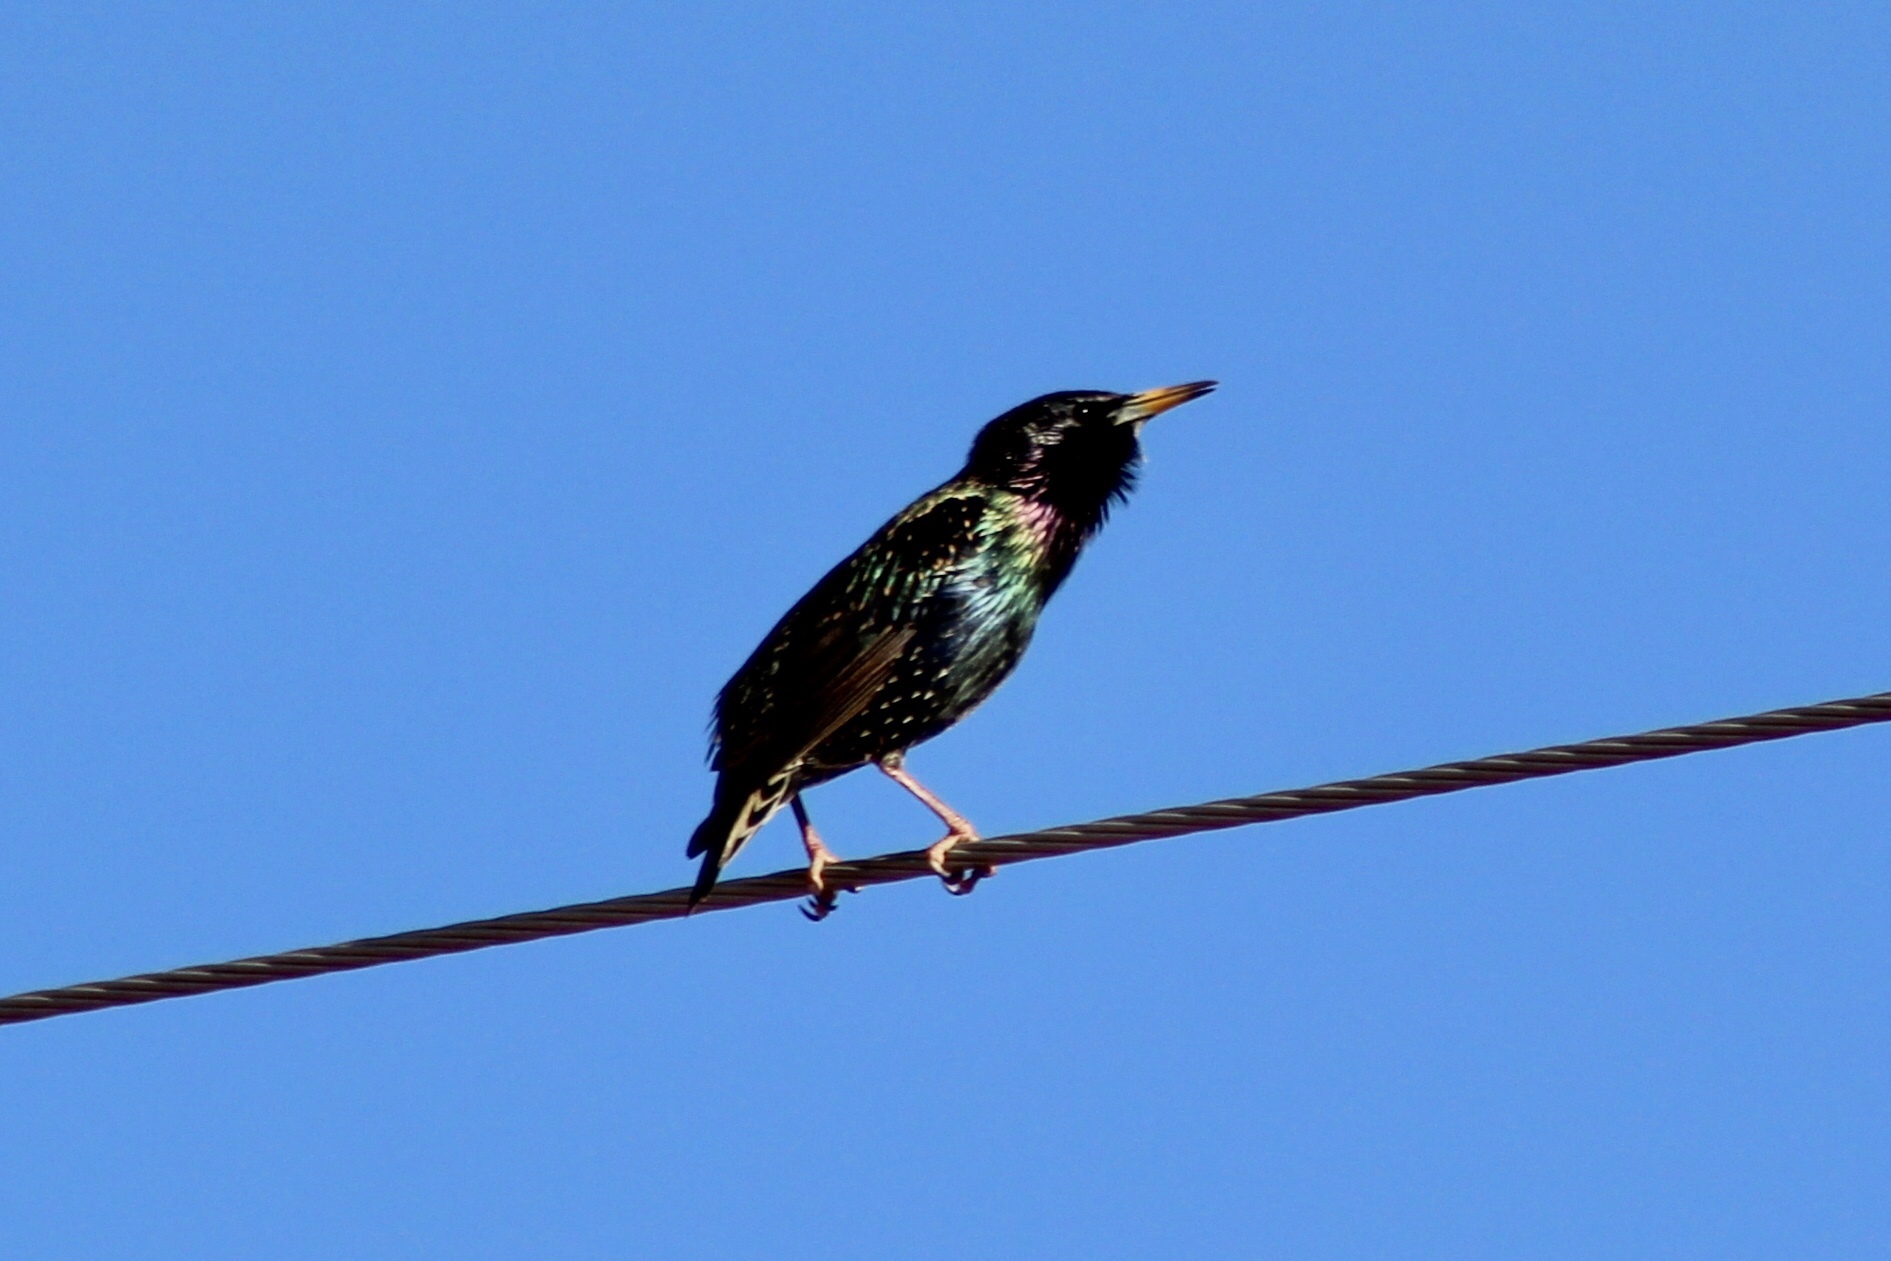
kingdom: Animalia
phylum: Chordata
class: Aves
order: Passeriformes
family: Sturnidae
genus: Sturnus
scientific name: Sturnus vulgaris
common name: Common starling
